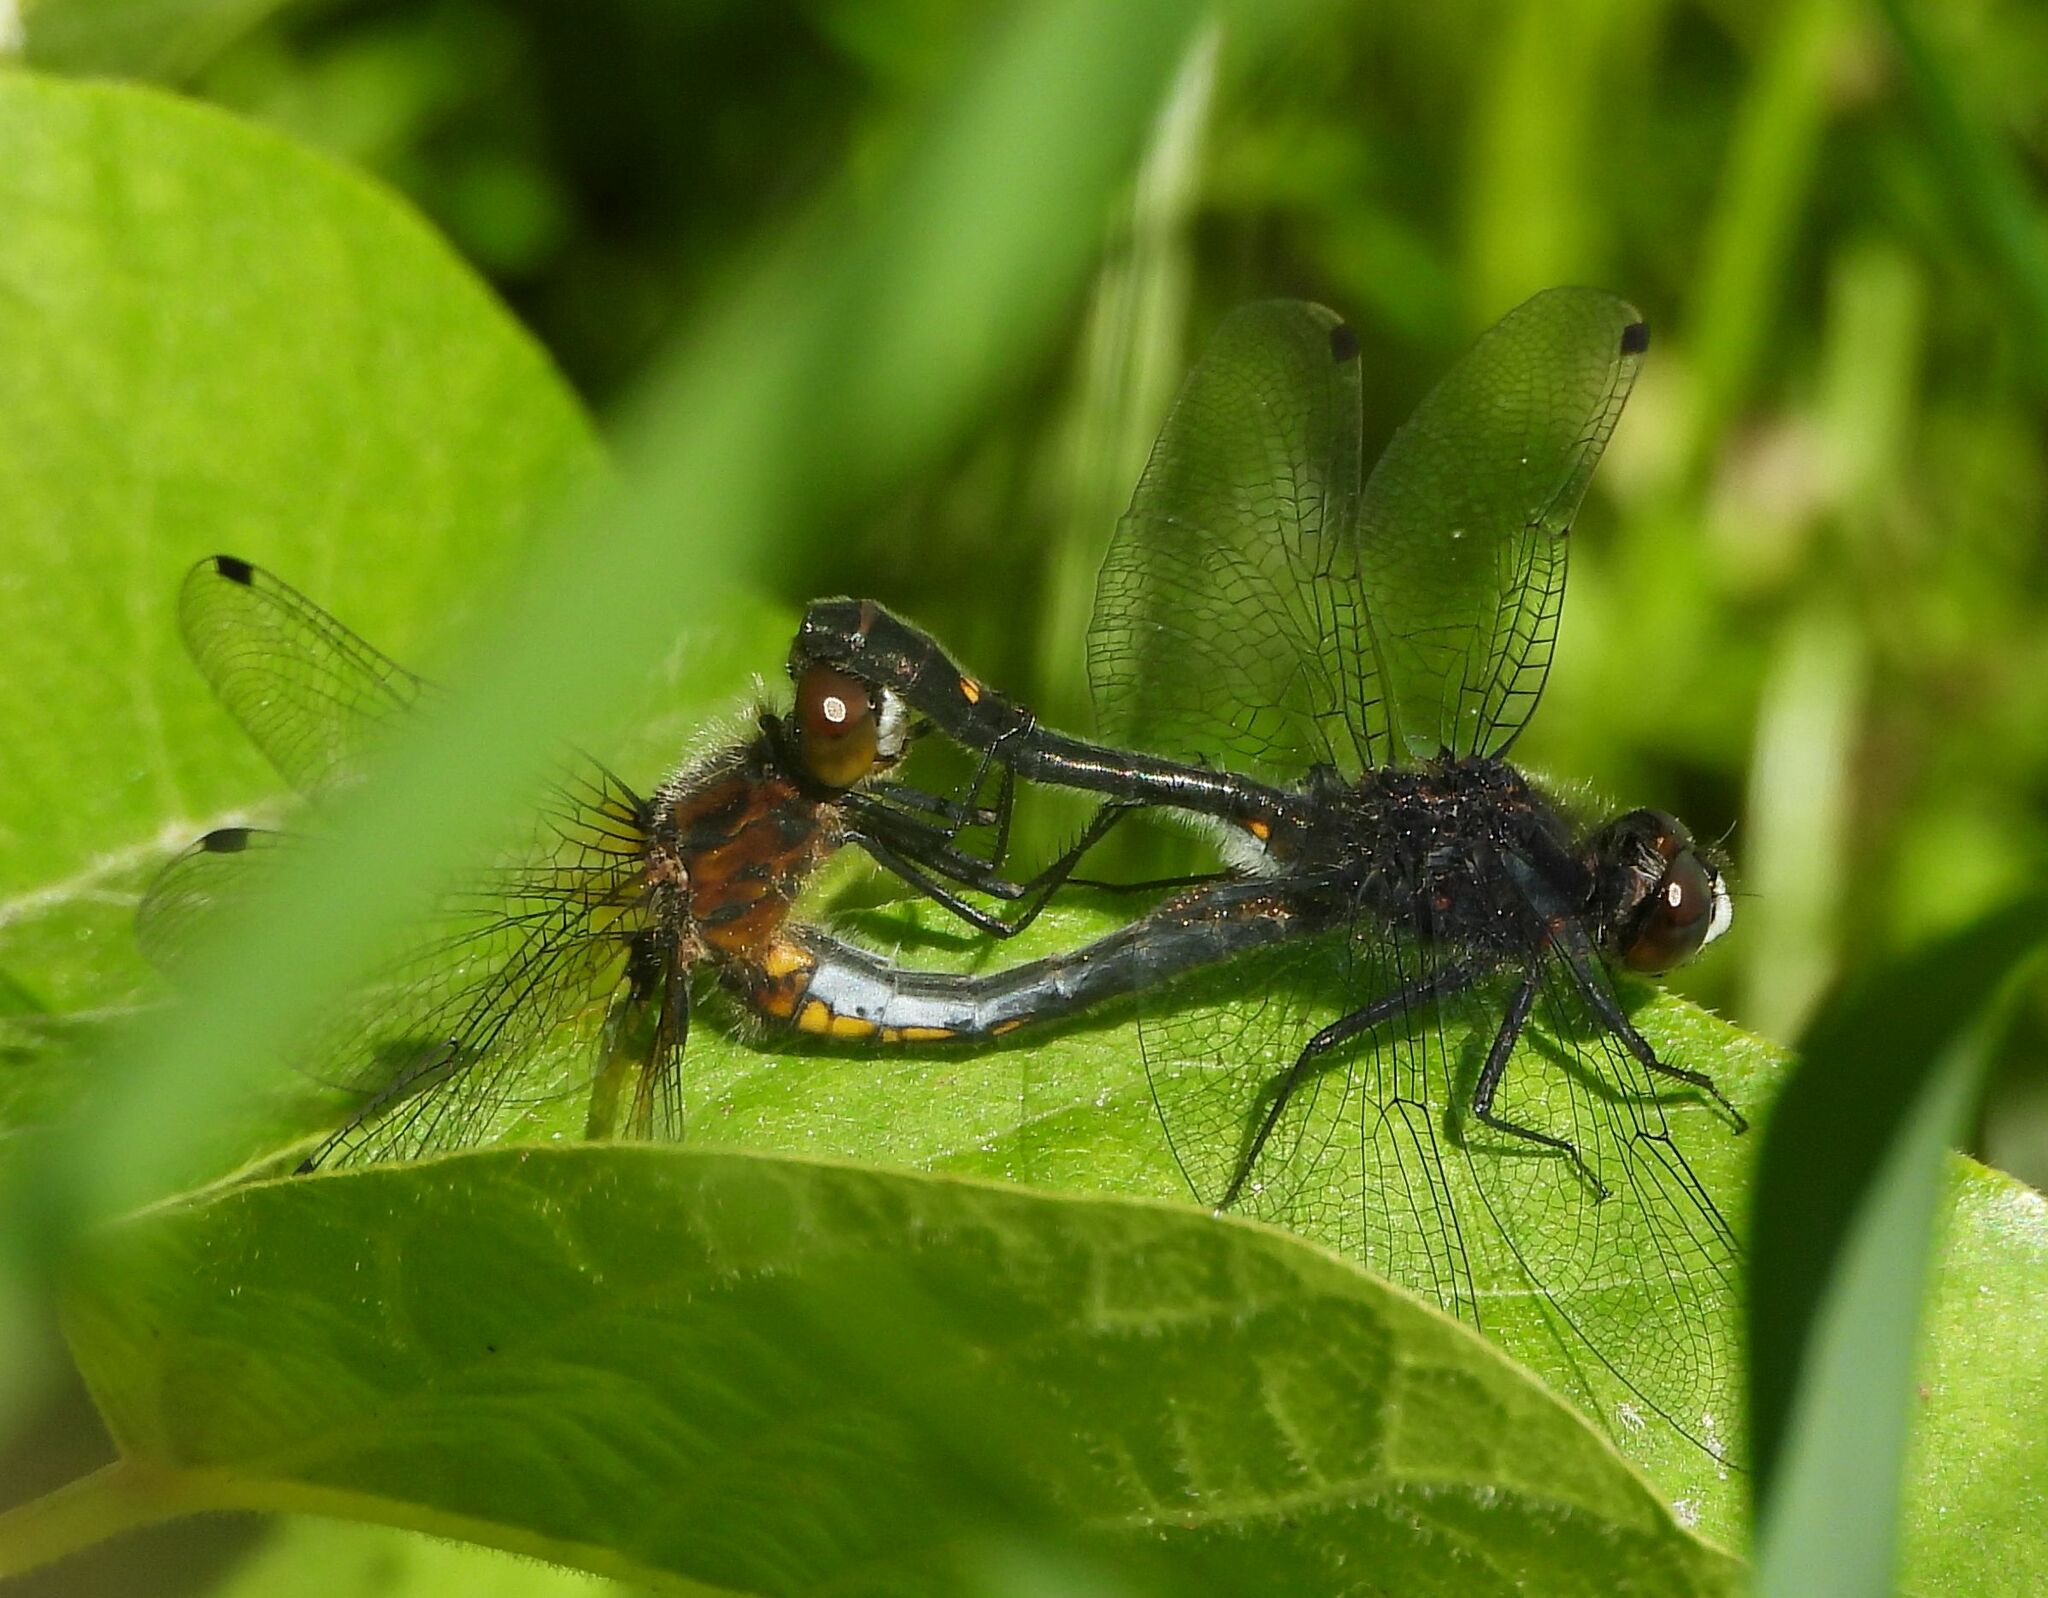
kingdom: Animalia
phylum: Arthropoda
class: Insecta
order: Odonata
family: Libellulidae
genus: Leucorrhinia
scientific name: Leucorrhinia intacta
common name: Dot-tailed whiteface
